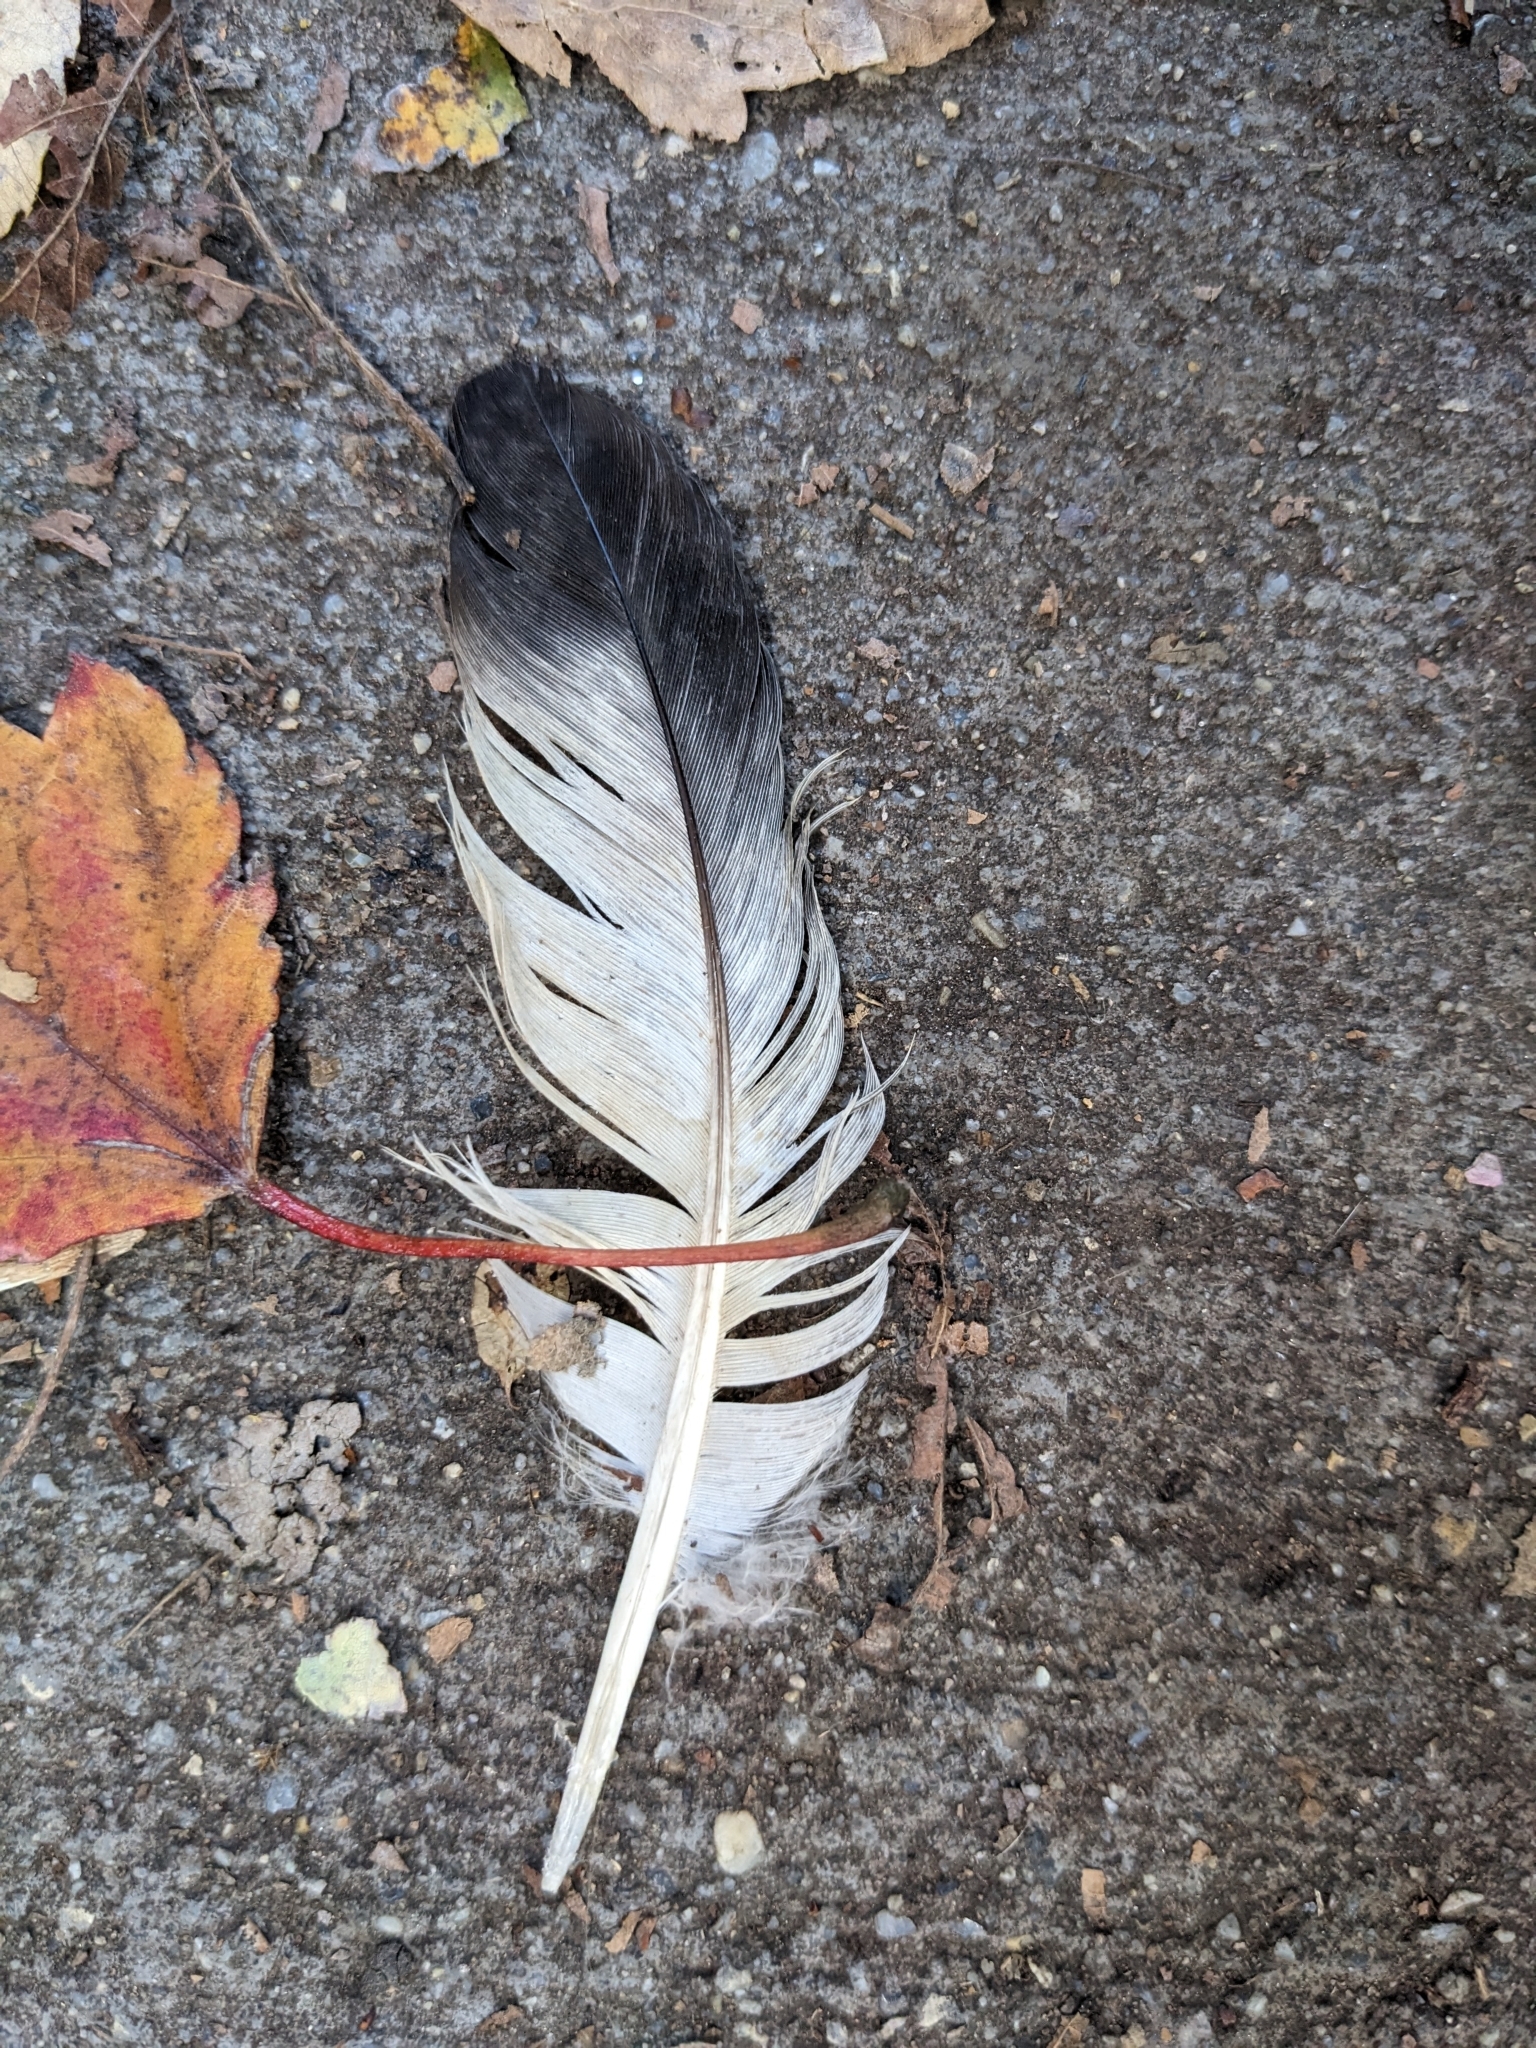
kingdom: Animalia
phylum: Chordata
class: Aves
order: Columbiformes
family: Columbidae
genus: Columba
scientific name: Columba livia
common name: Rock pigeon
